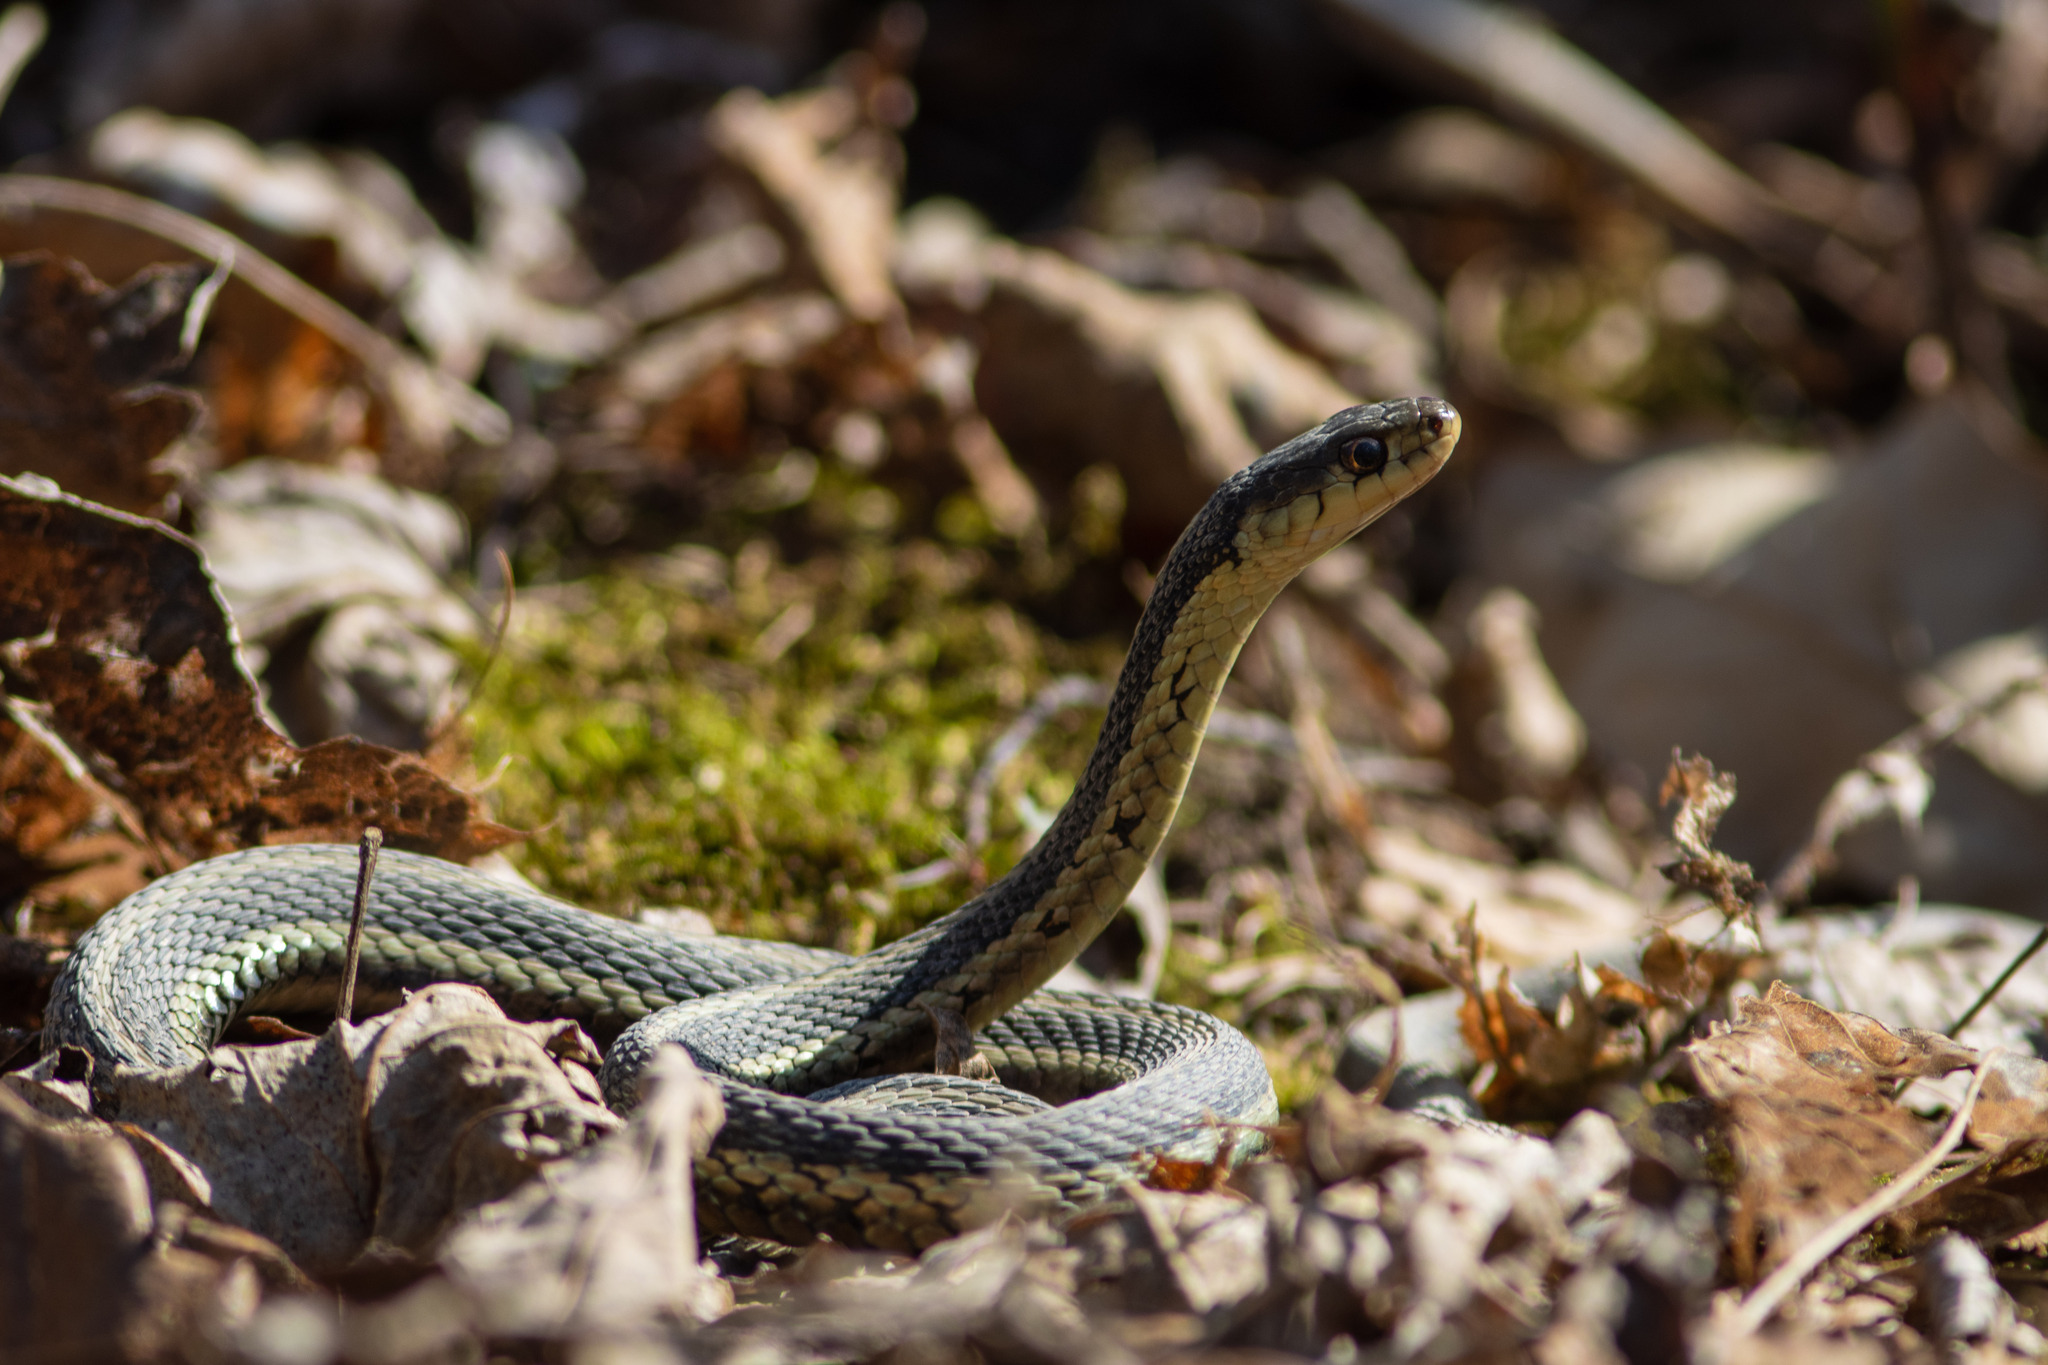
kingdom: Animalia
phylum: Chordata
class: Squamata
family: Colubridae
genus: Thamnophis
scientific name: Thamnophis sirtalis
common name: Common garter snake
